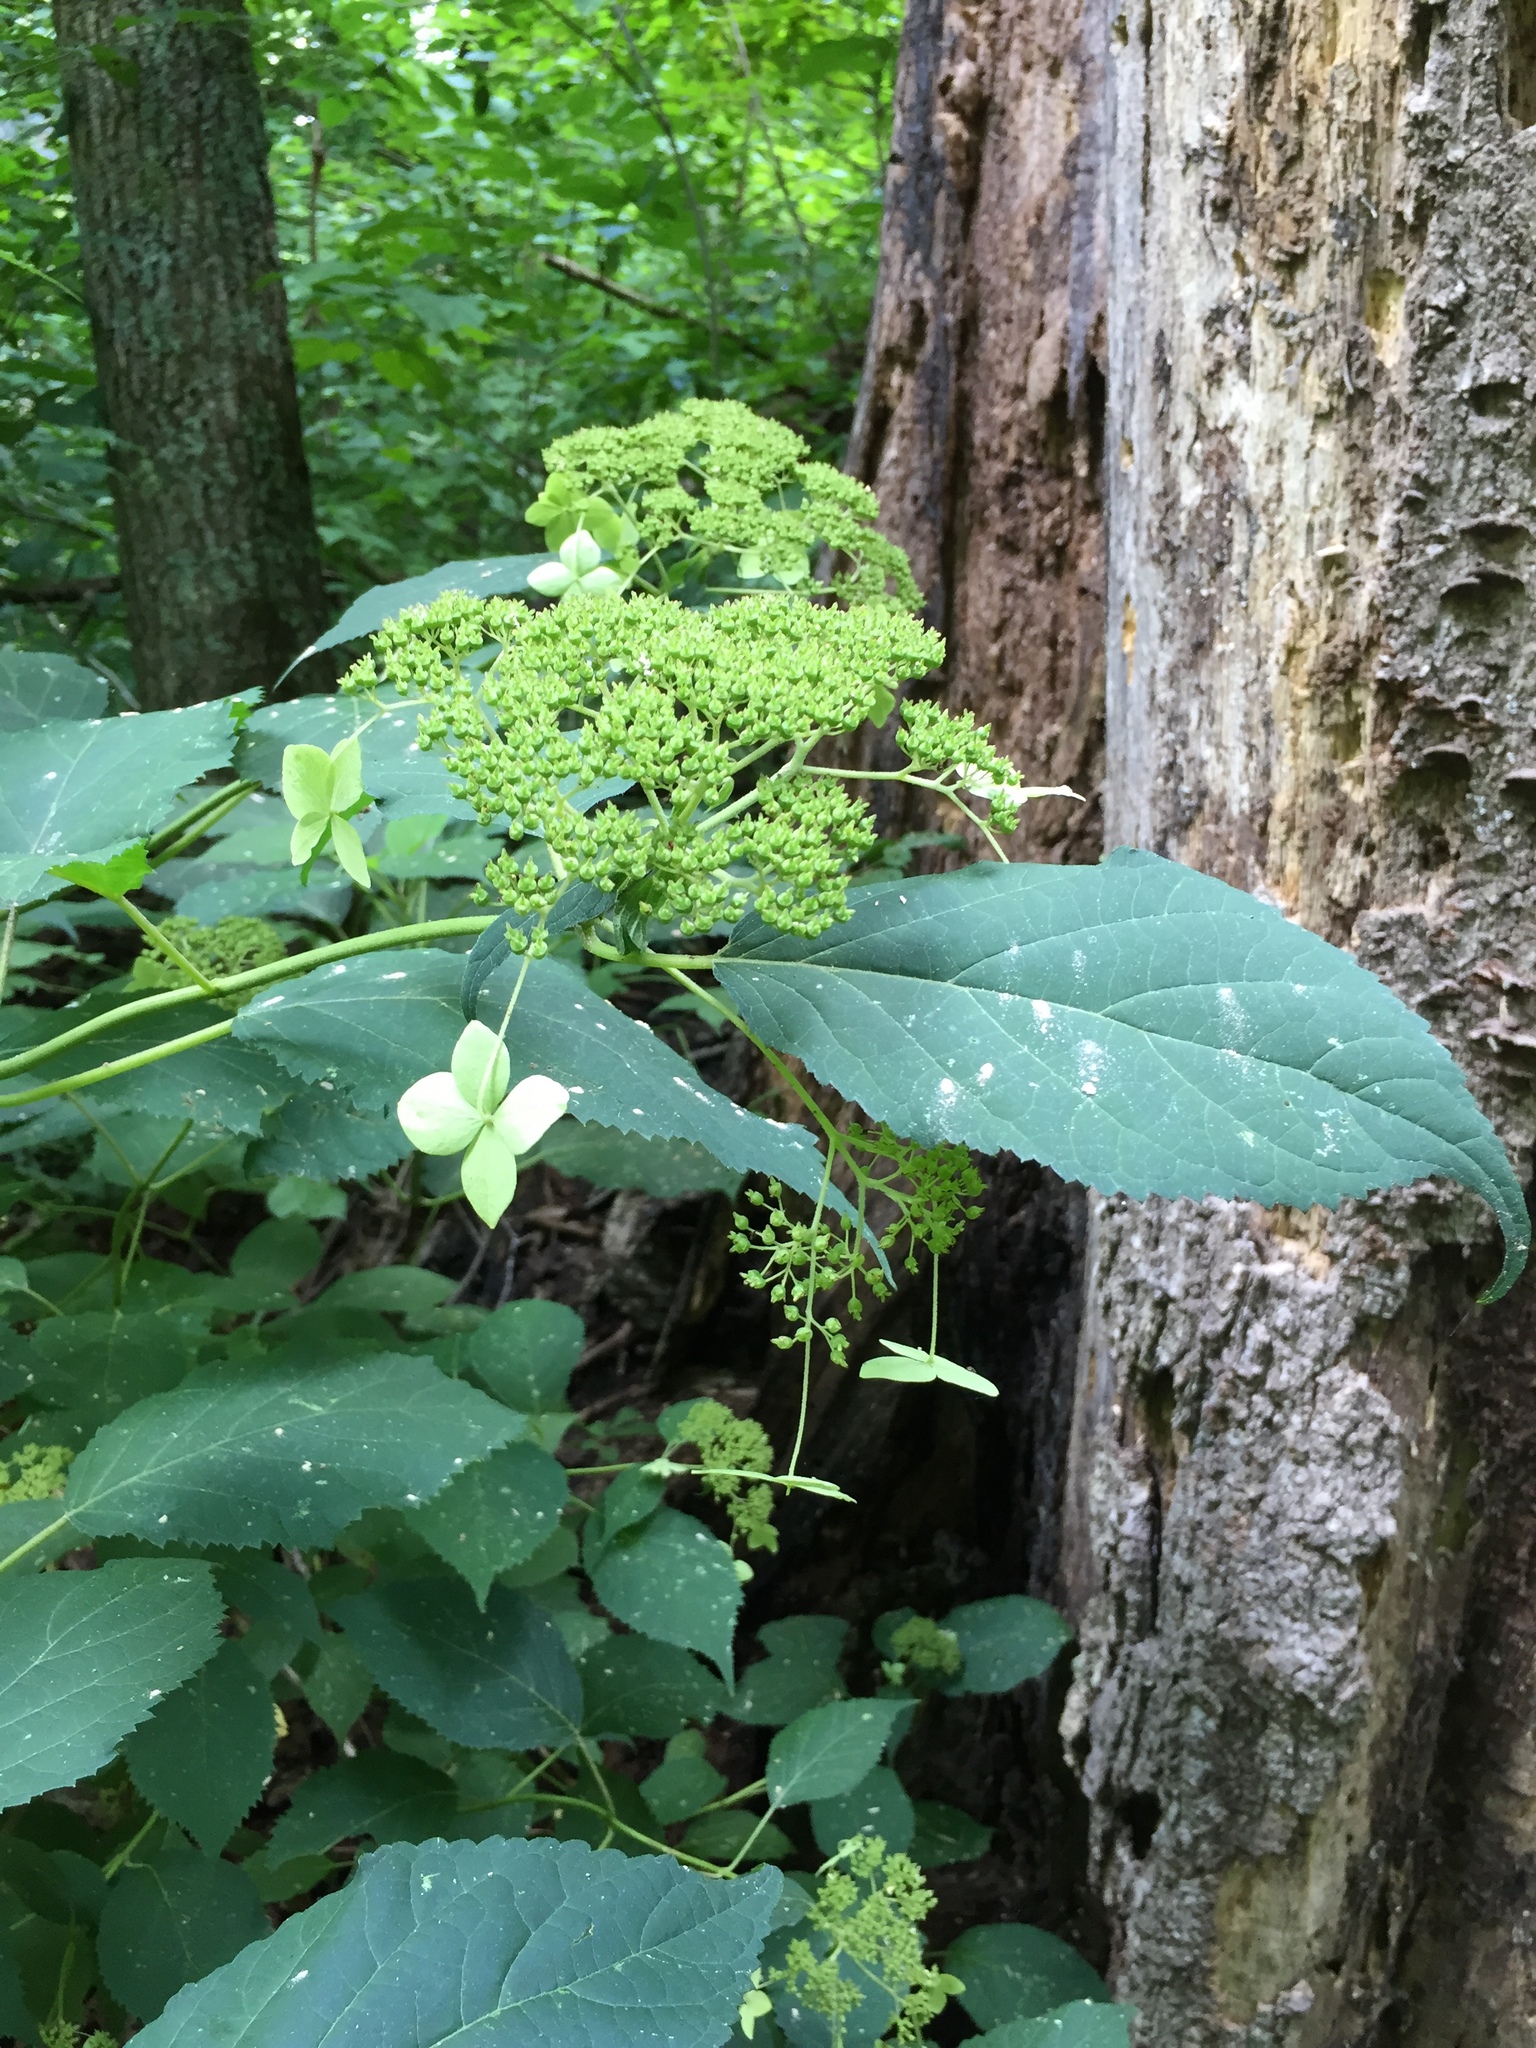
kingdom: Plantae
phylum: Tracheophyta
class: Magnoliopsida
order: Cornales
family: Hydrangeaceae
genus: Hydrangea
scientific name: Hydrangea arborescens
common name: Sevenbark
